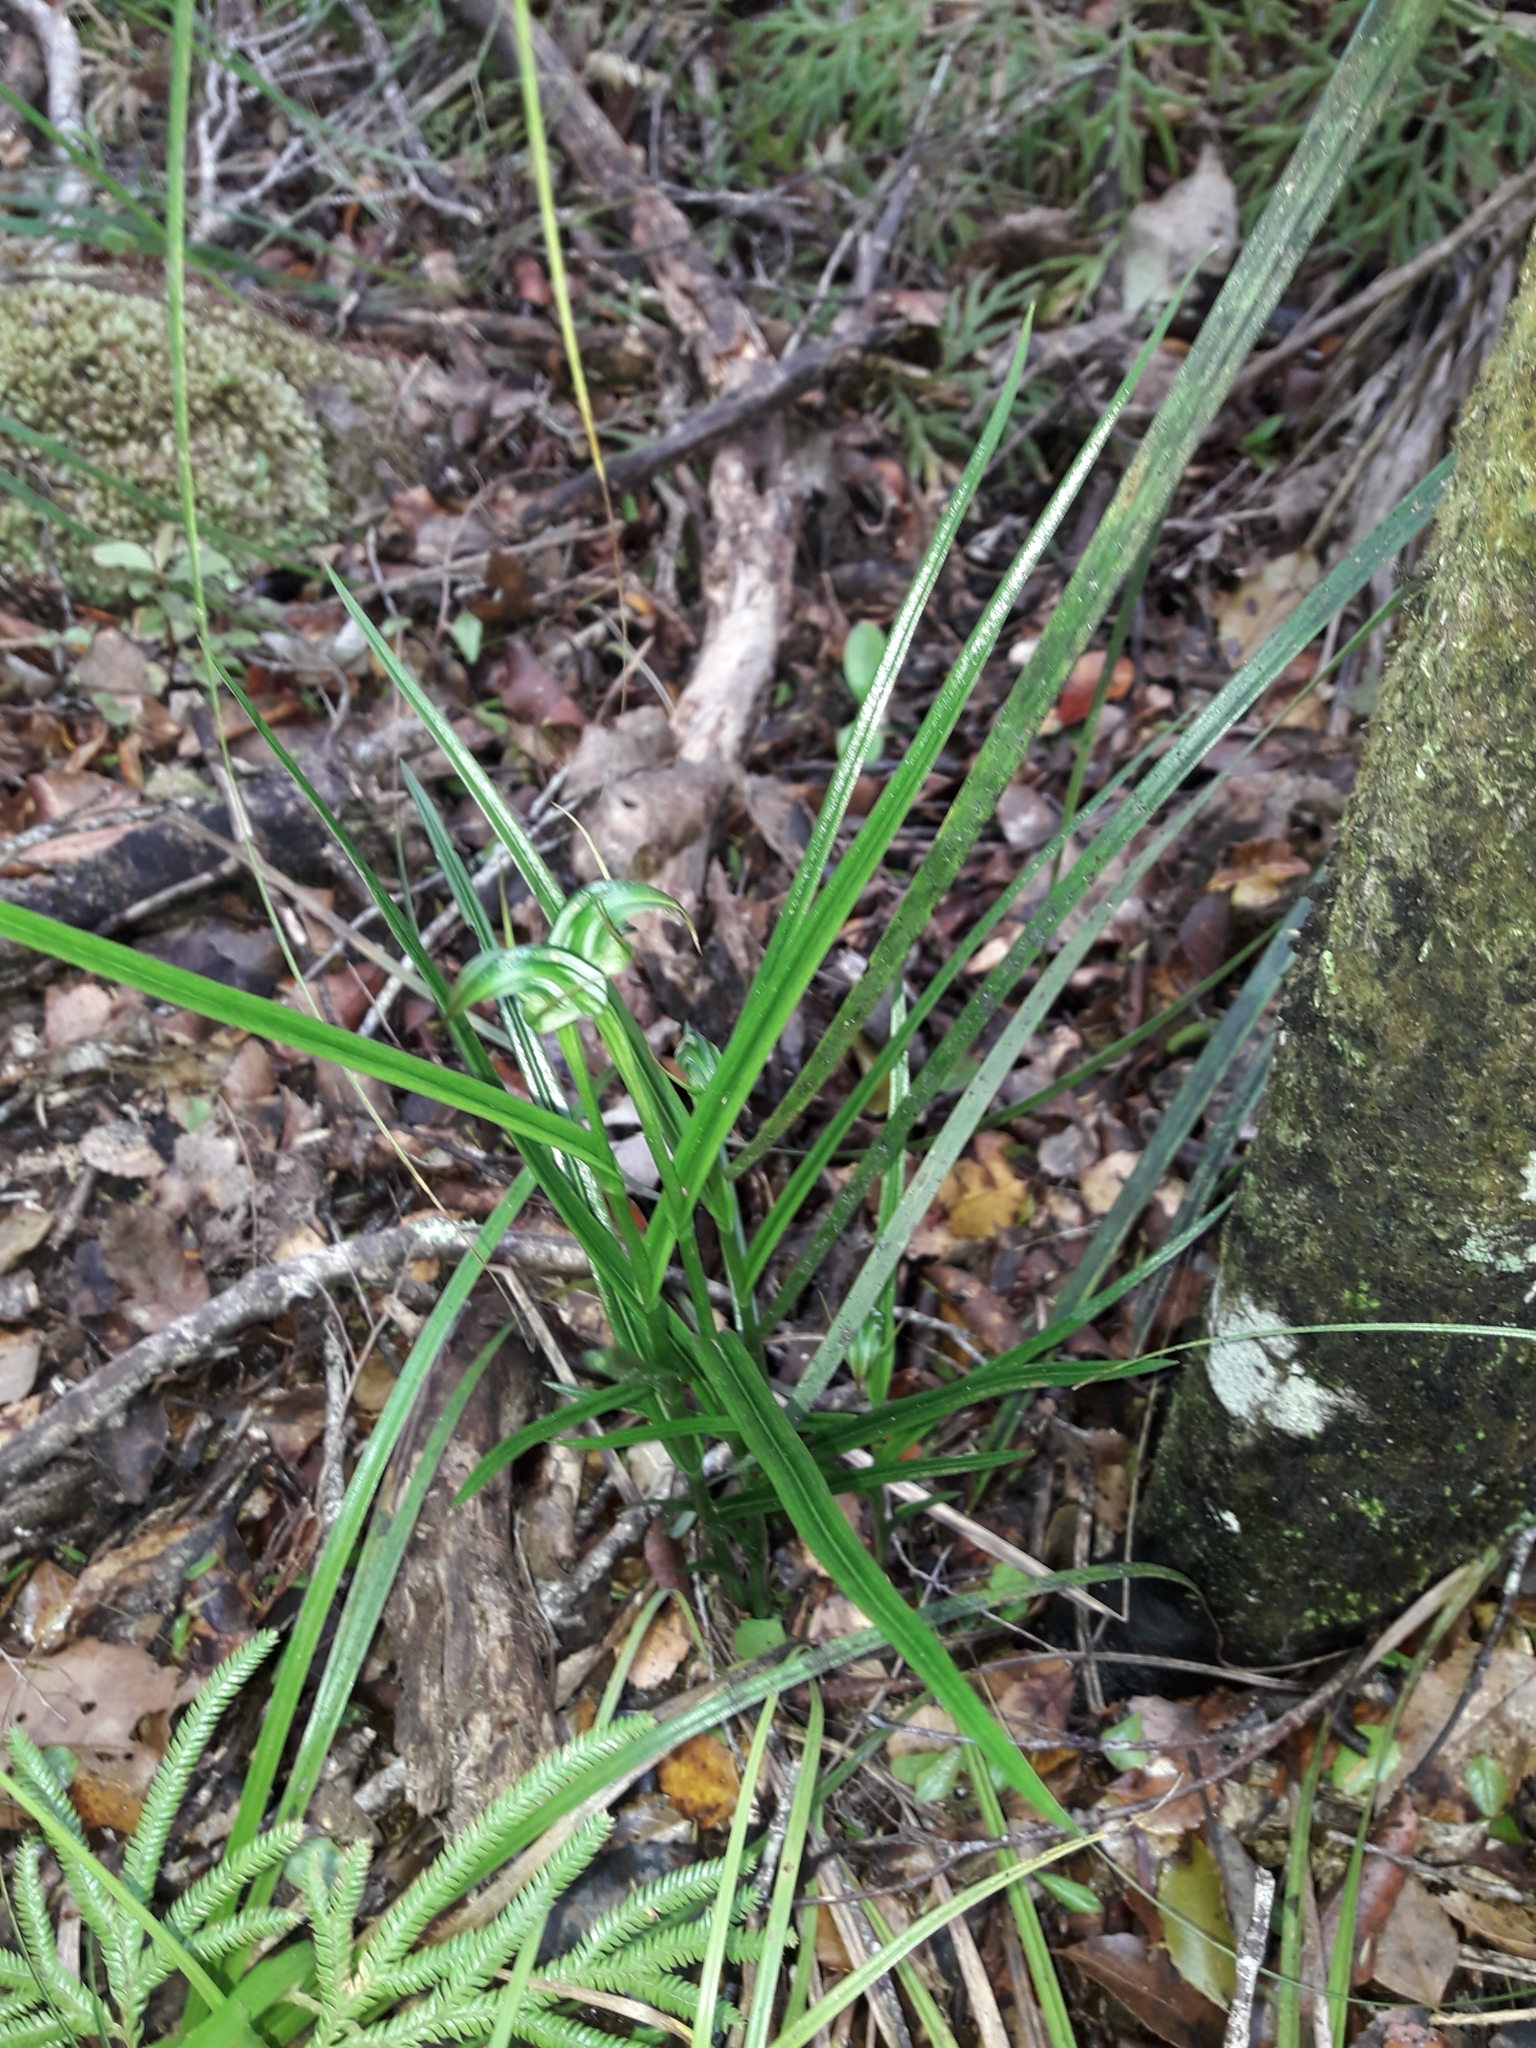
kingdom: Plantae
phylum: Tracheophyta
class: Liliopsida
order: Asparagales
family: Orchidaceae
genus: Pterostylis
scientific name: Pterostylis graminea
